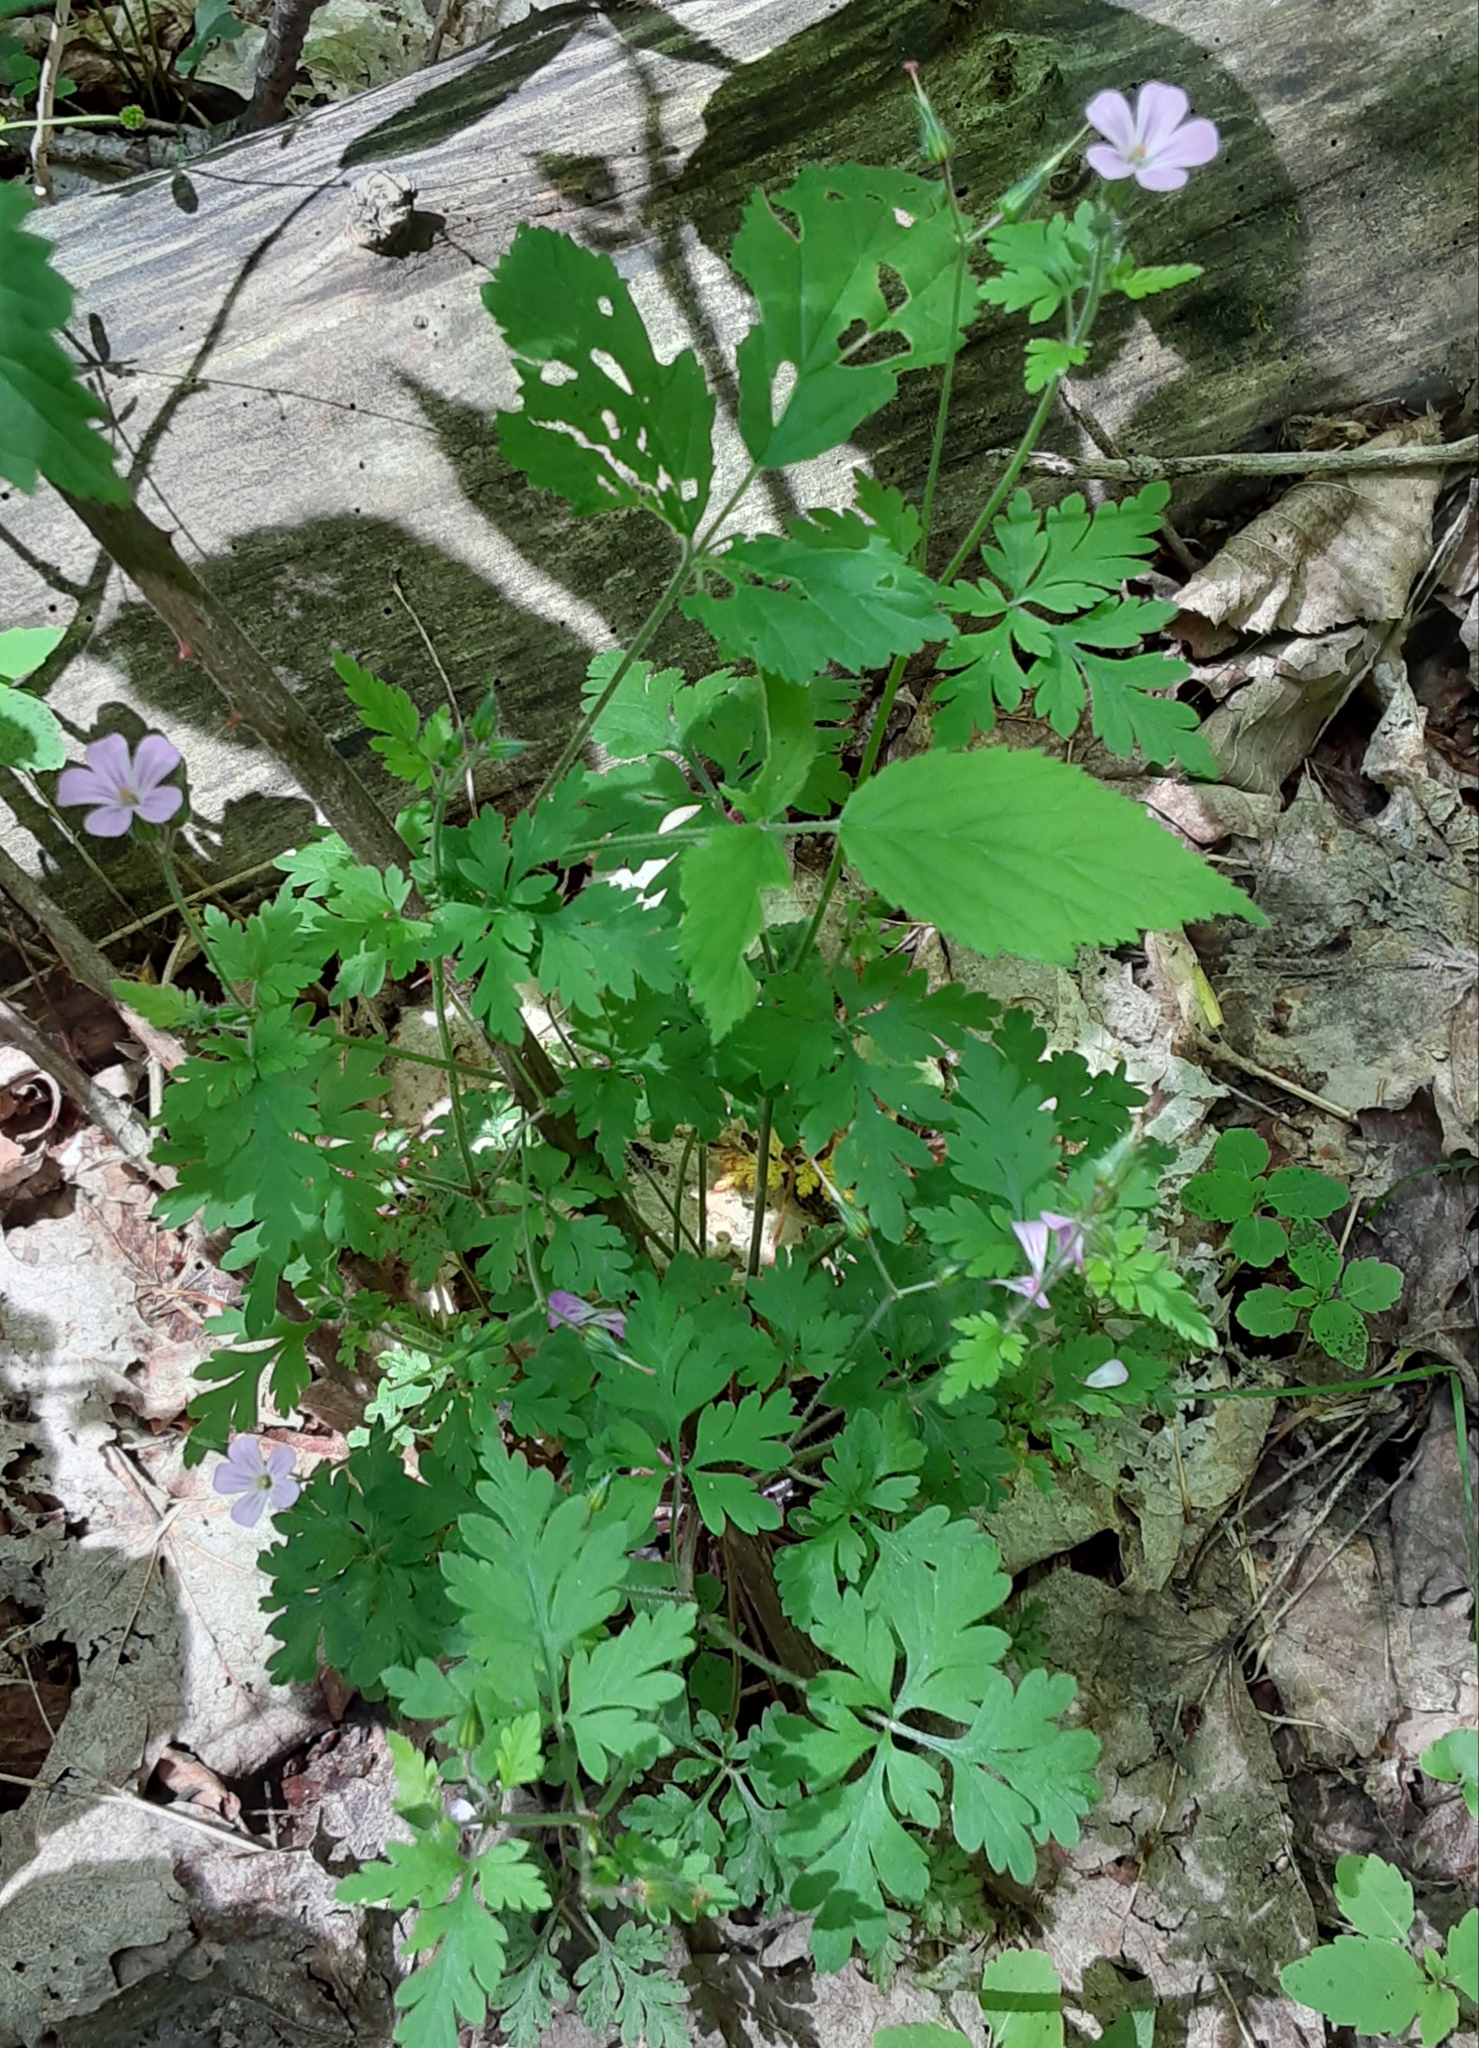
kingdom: Plantae
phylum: Tracheophyta
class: Magnoliopsida
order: Geraniales
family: Geraniaceae
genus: Geranium
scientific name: Geranium robertianum
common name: Herb-robert
